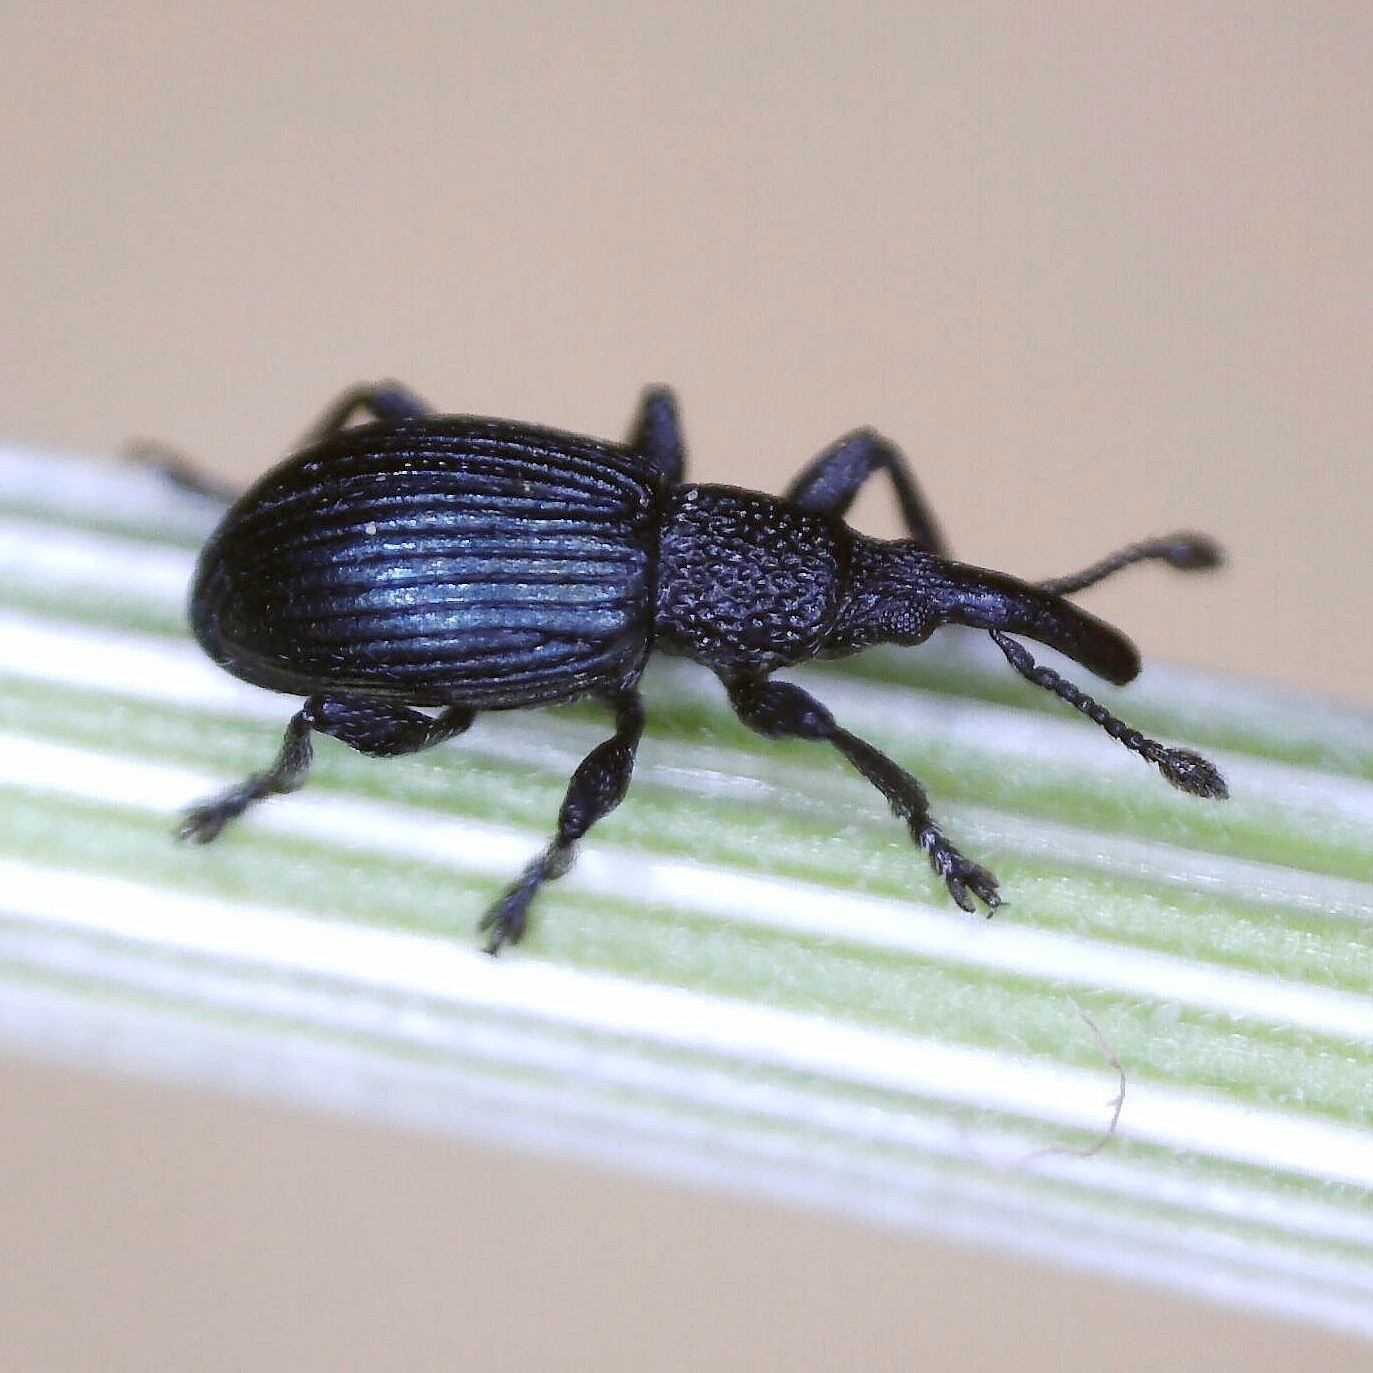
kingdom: Animalia
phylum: Arthropoda
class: Insecta
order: Coleoptera
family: Apionidae
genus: Ceratapion
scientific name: Ceratapion onopordi
